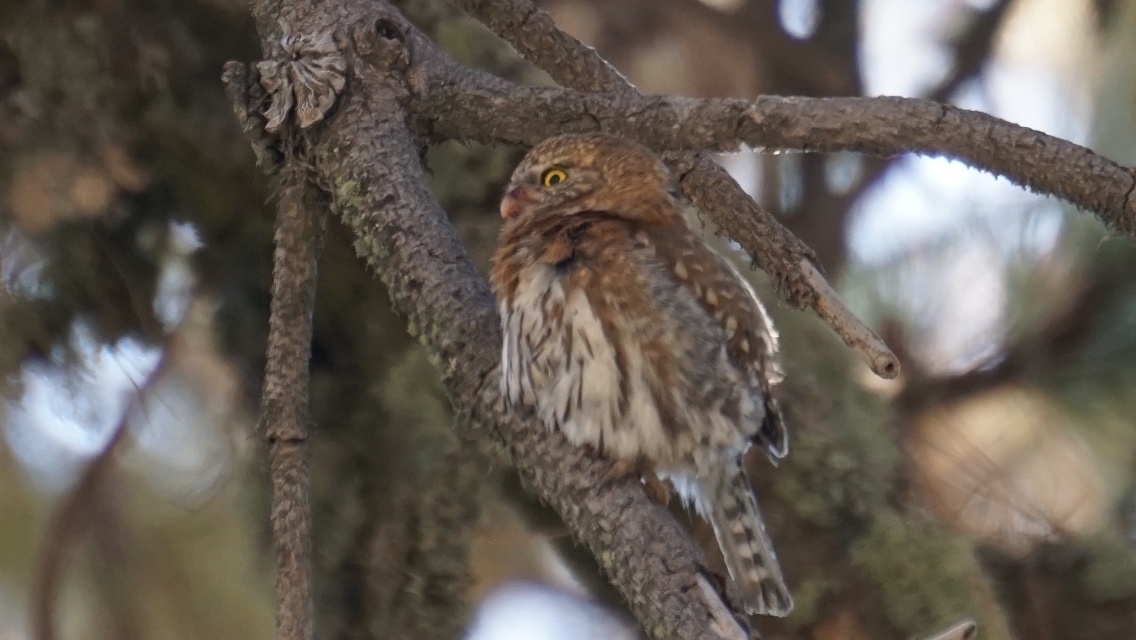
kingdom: Animalia
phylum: Chordata
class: Aves
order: Strigiformes
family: Strigidae
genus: Glaucidium
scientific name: Glaucidium gnoma
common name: Northern pygmy-owl
